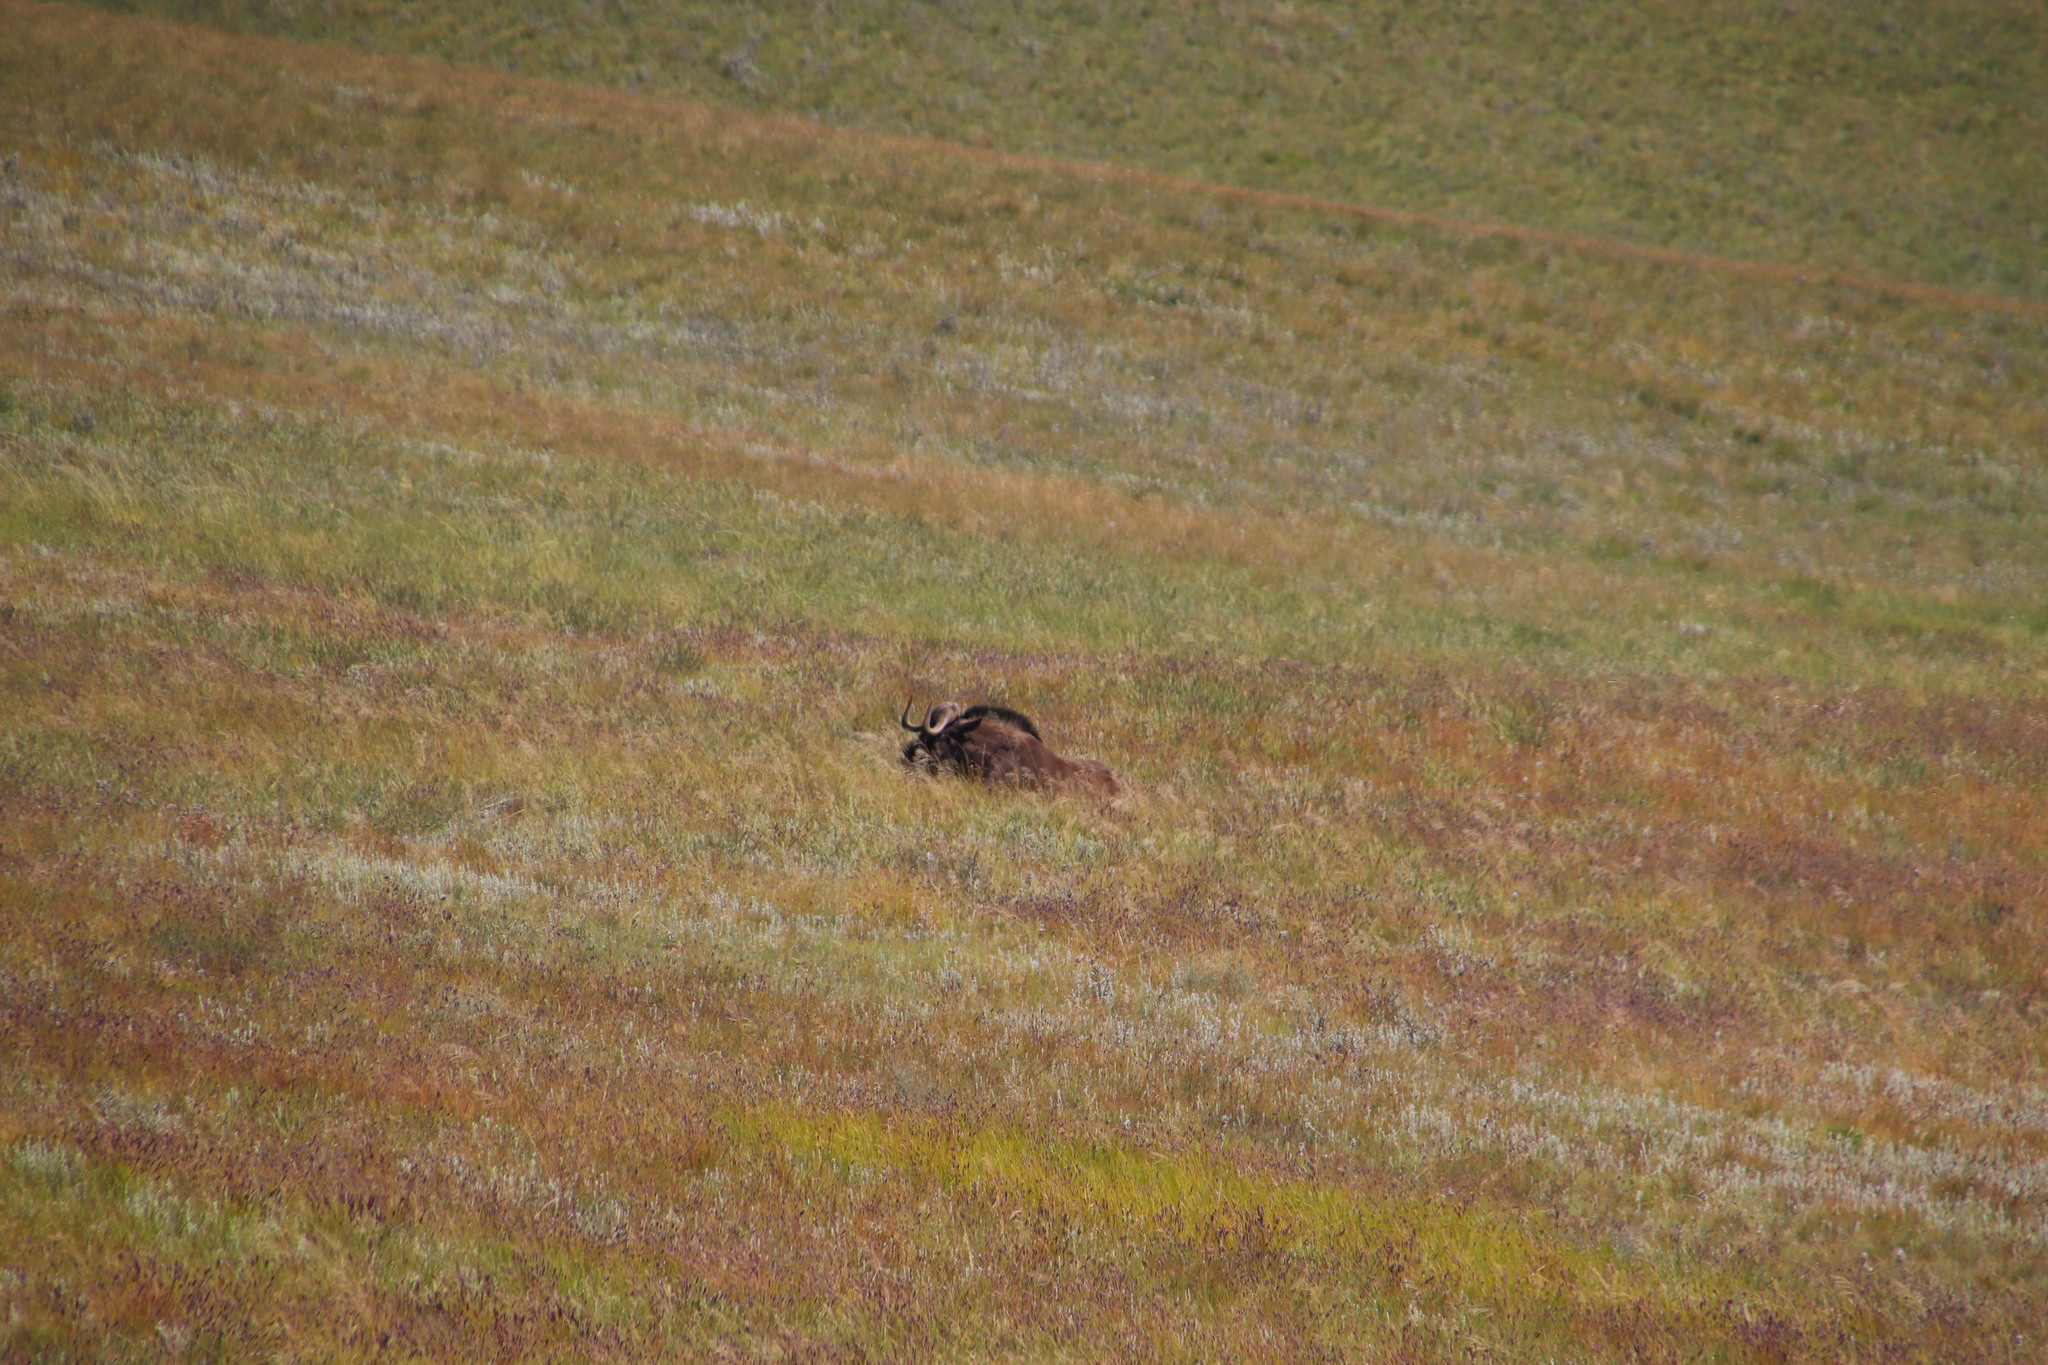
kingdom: Animalia
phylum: Chordata
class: Mammalia
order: Artiodactyla
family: Bovidae
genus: Connochaetes
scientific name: Connochaetes gnou
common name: Black wildebeest
